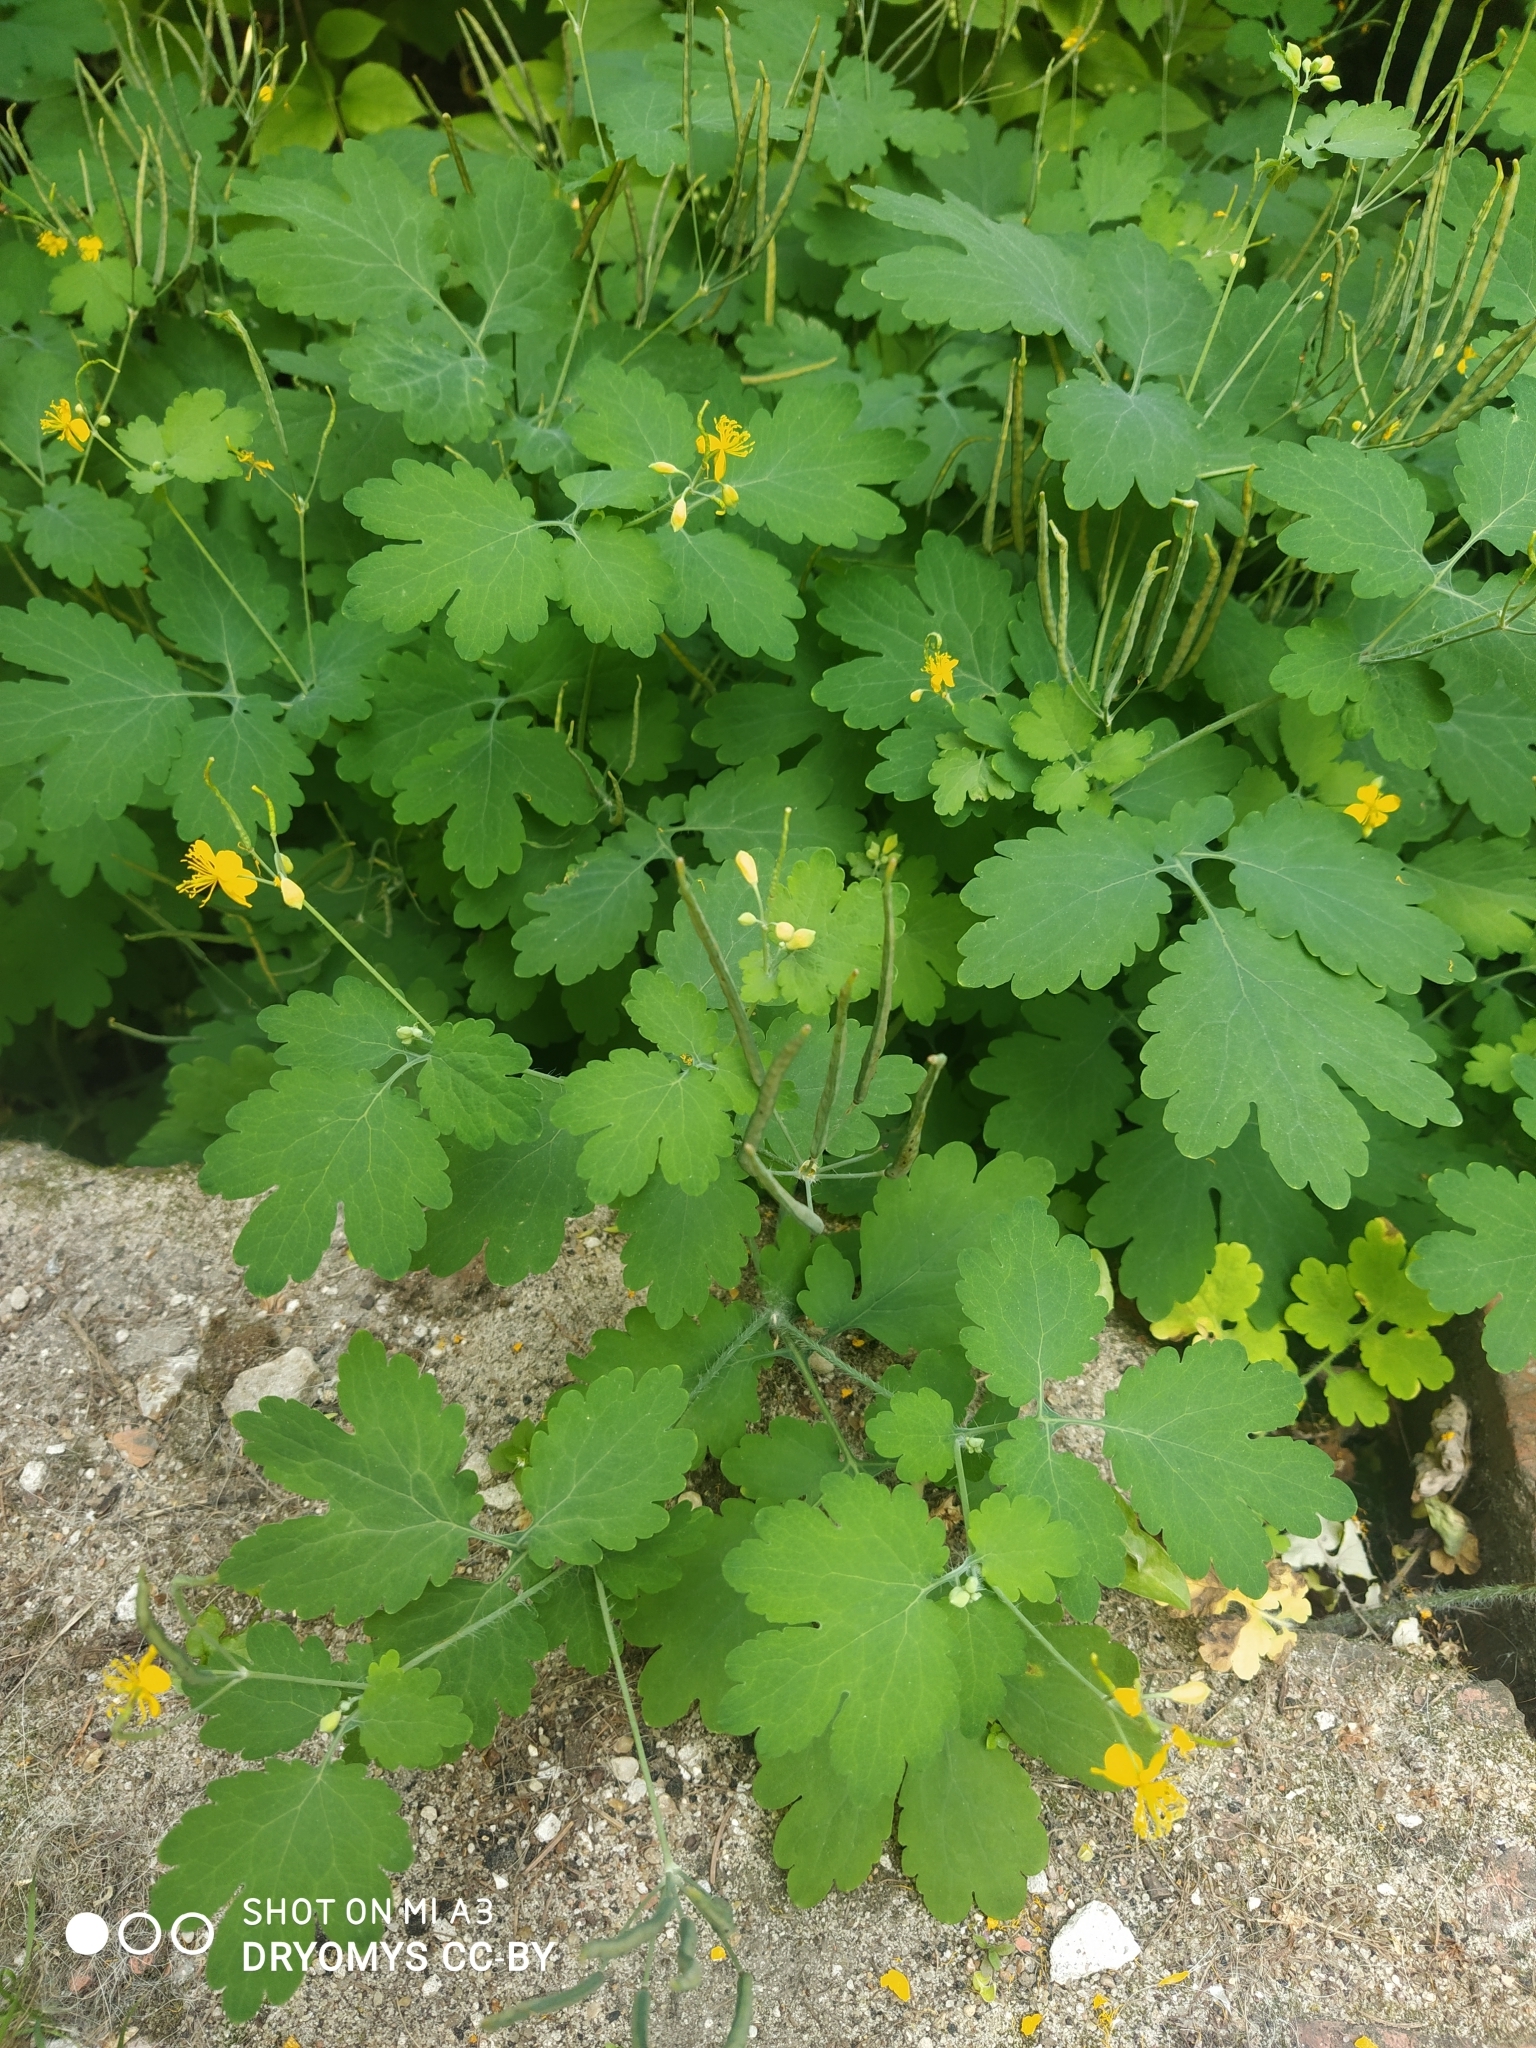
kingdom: Plantae
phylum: Tracheophyta
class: Magnoliopsida
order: Ranunculales
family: Papaveraceae
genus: Chelidonium
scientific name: Chelidonium majus
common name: Greater celandine
